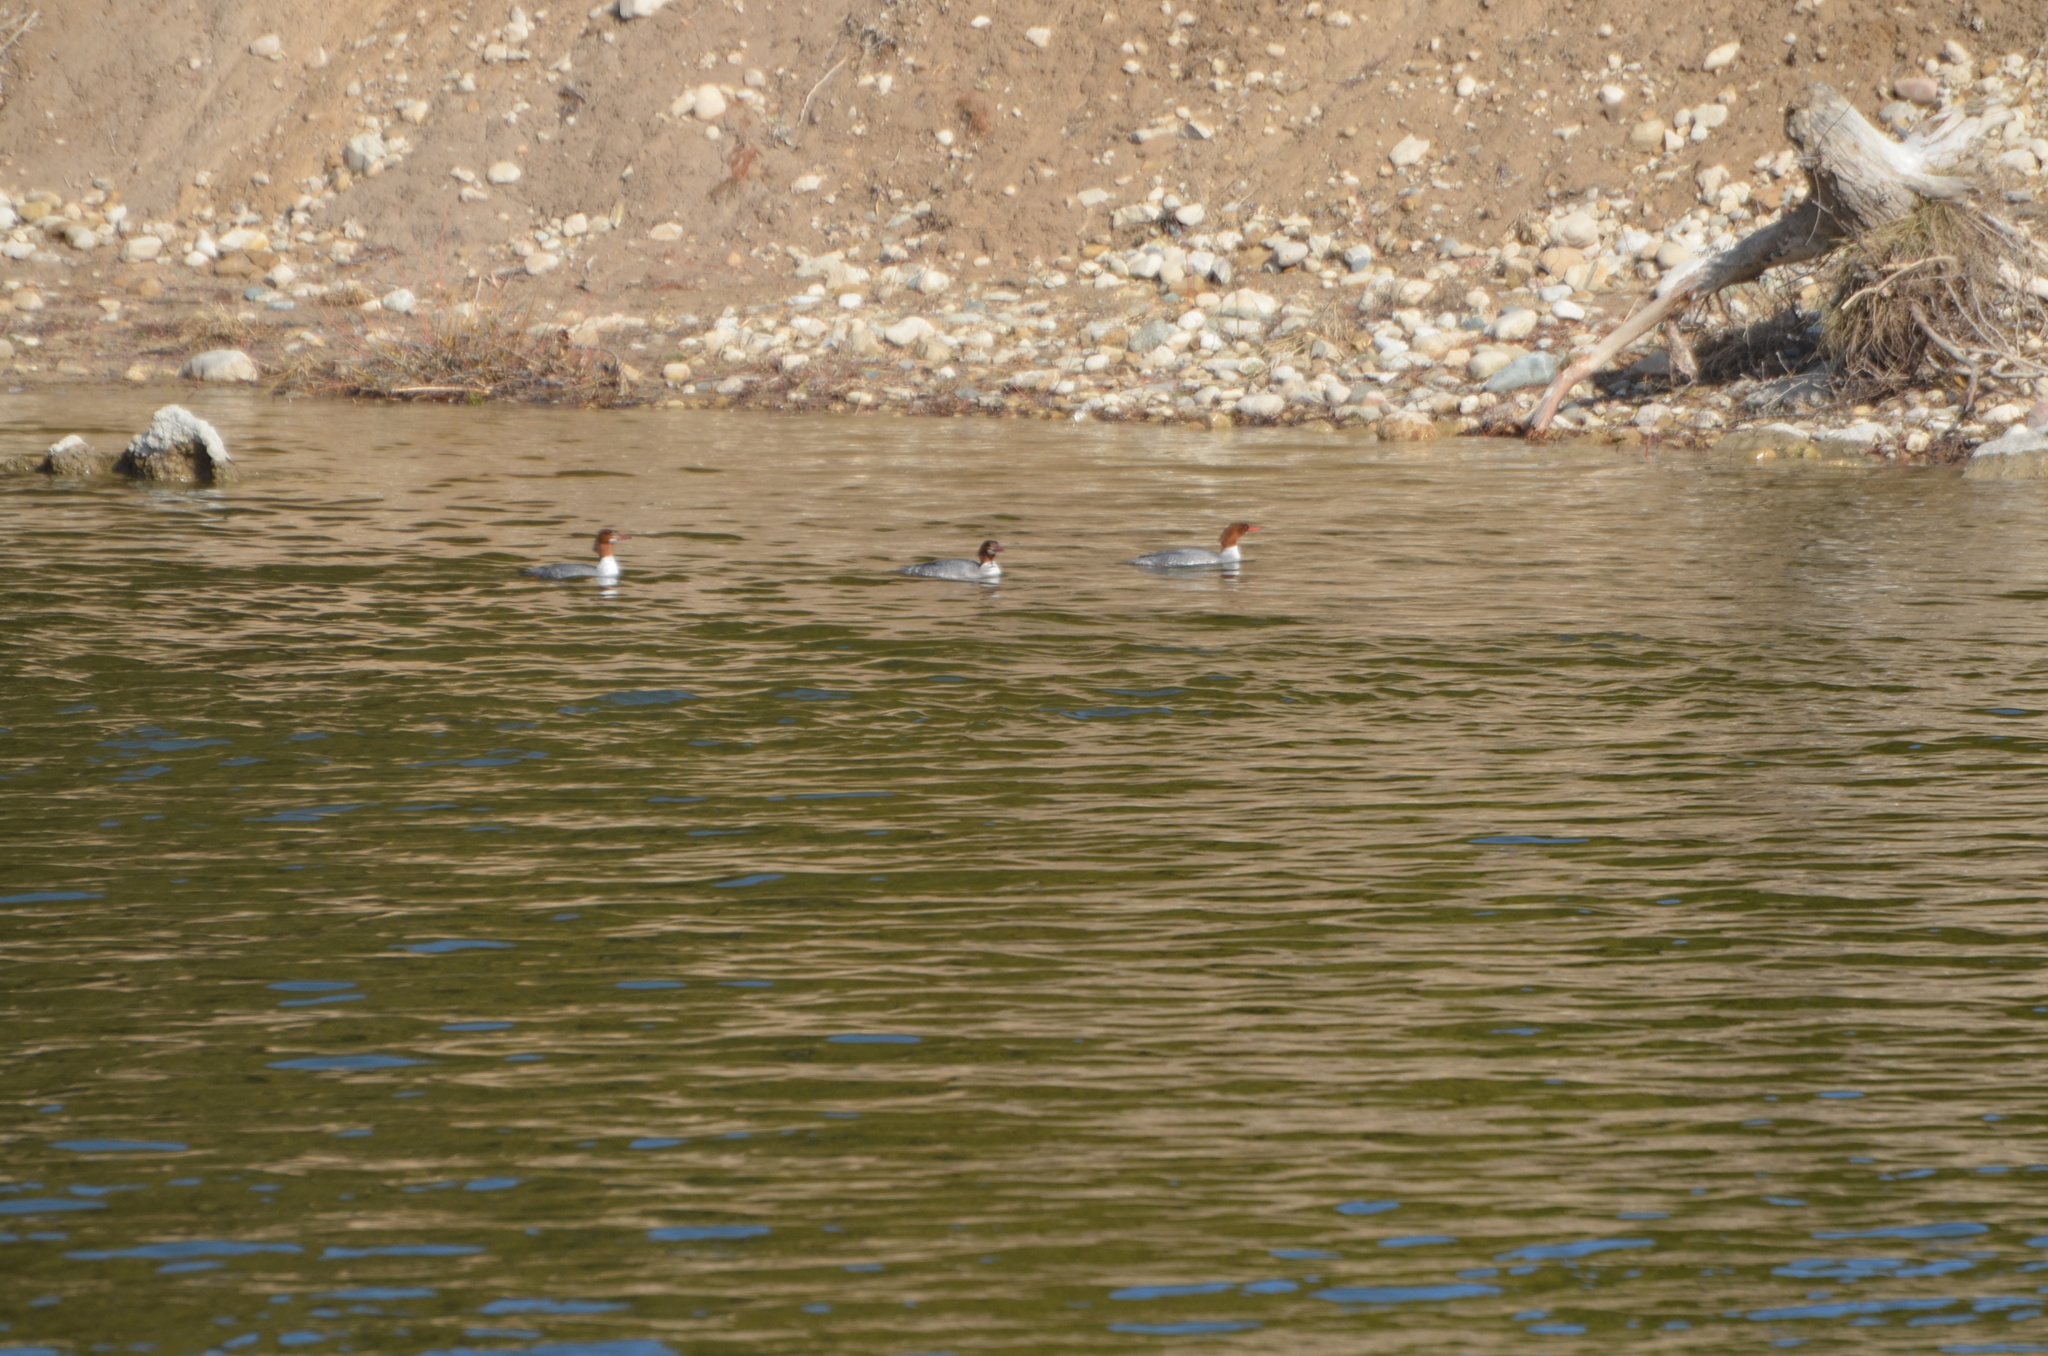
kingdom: Animalia
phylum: Chordata
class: Aves
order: Anseriformes
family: Anatidae
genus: Mergus
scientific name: Mergus merganser
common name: Common merganser
